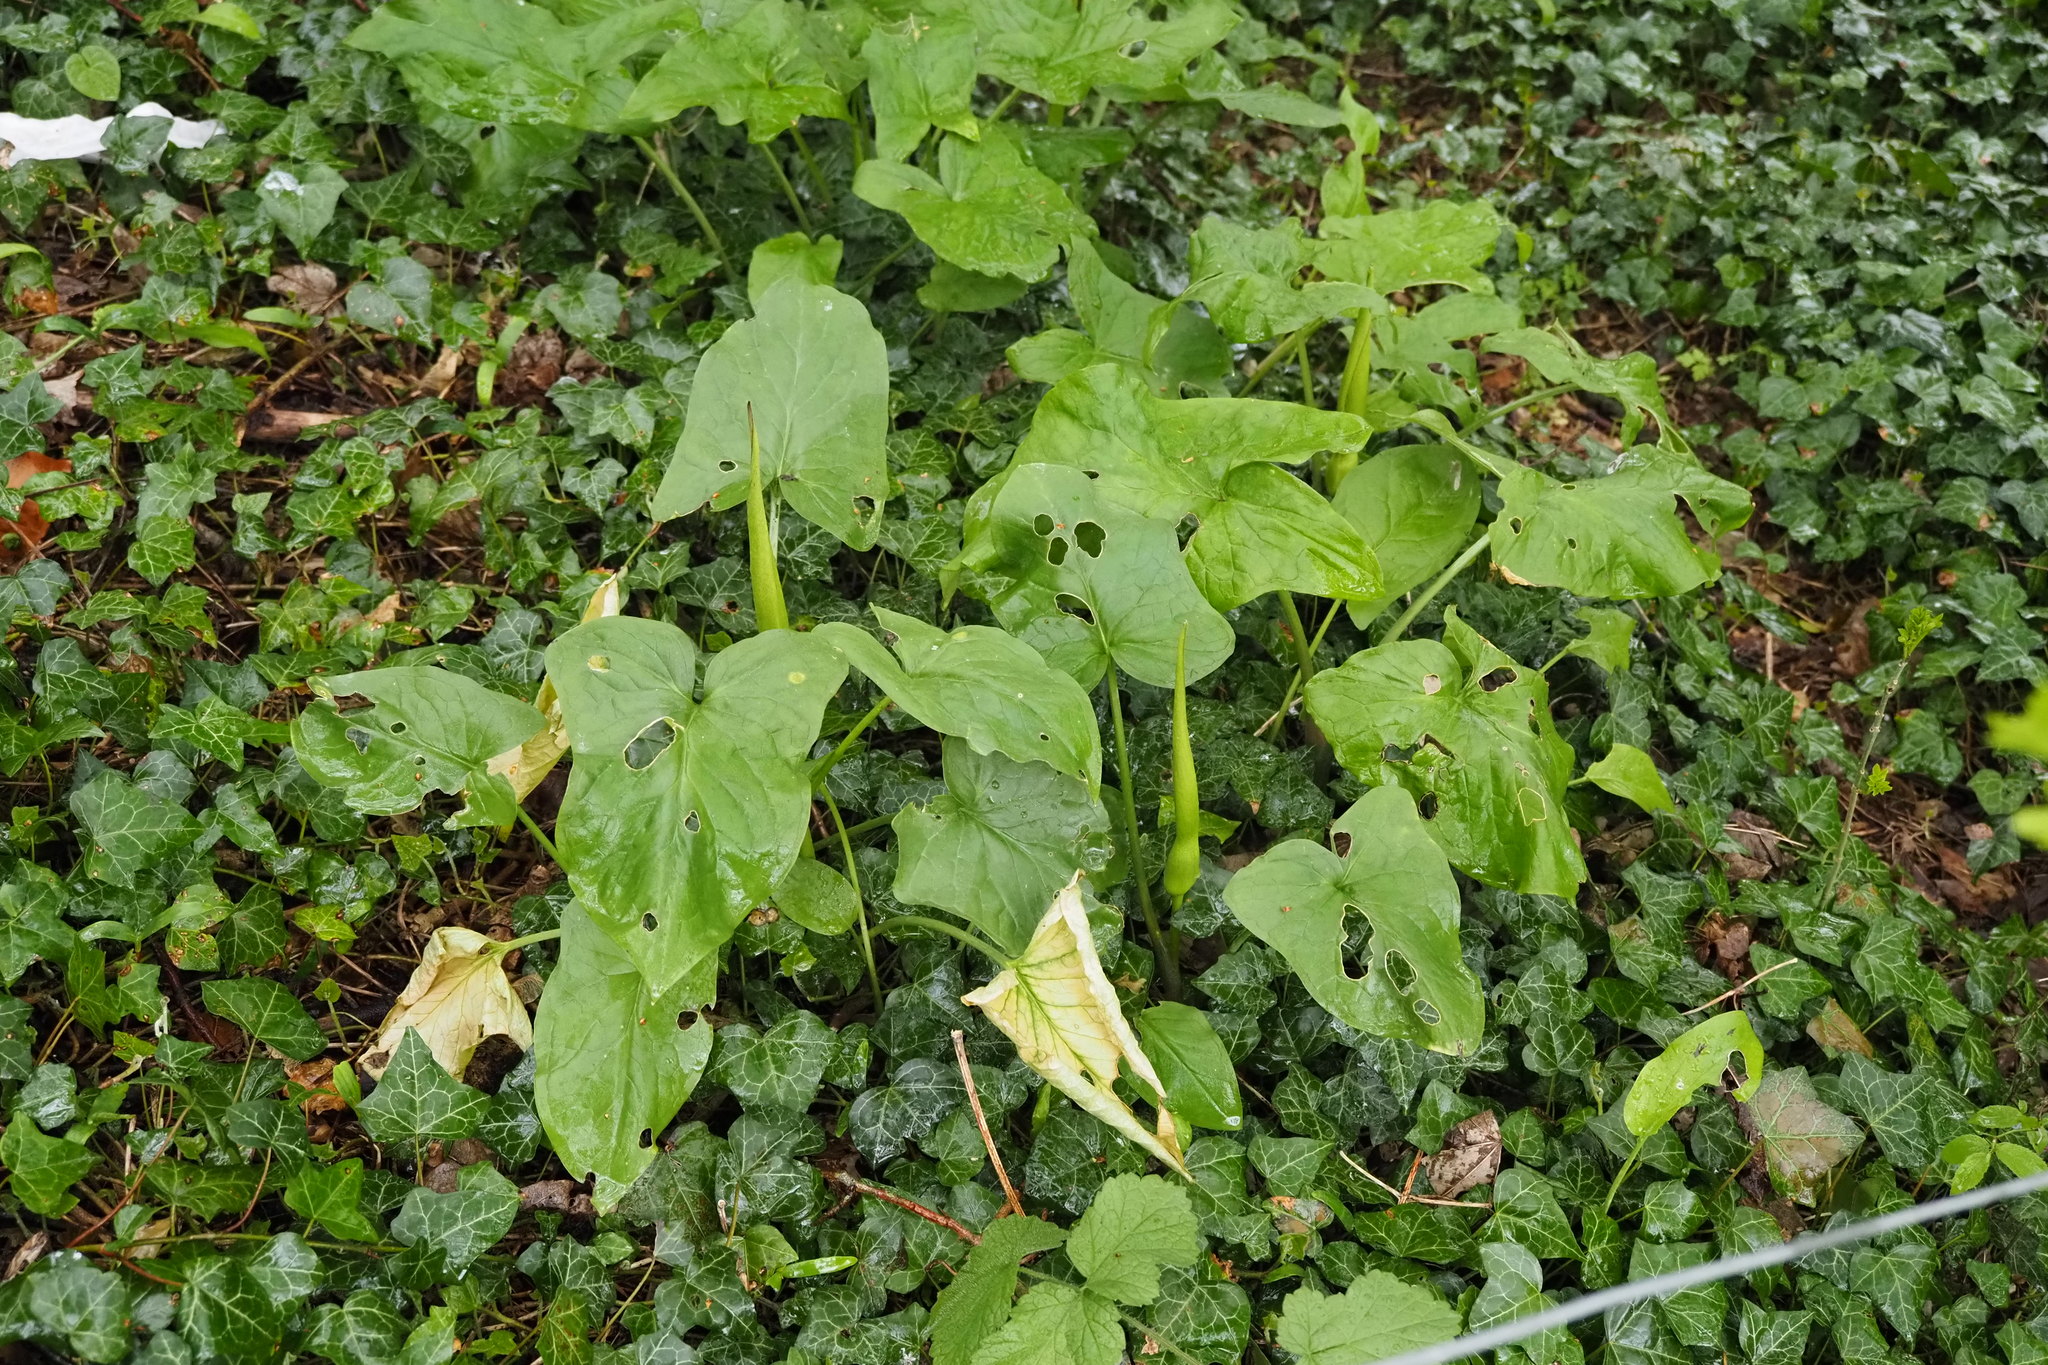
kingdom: Plantae
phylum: Tracheophyta
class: Liliopsida
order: Alismatales
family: Araceae
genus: Arum
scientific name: Arum maculatum
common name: Lords-and-ladies
